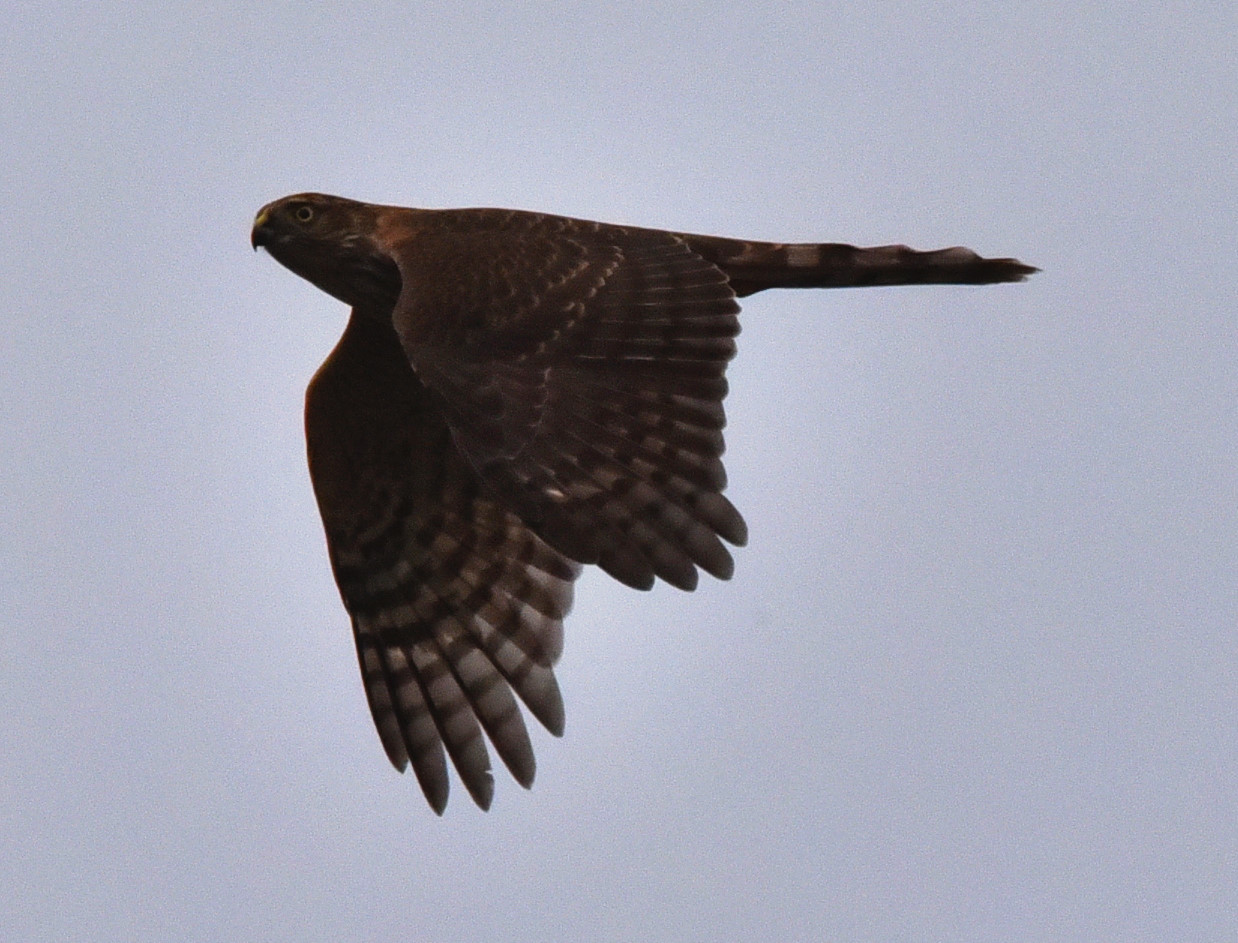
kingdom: Animalia
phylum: Chordata
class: Aves
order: Accipitriformes
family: Accipitridae
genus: Accipiter
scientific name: Accipiter striatus
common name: Sharp-shinned hawk
